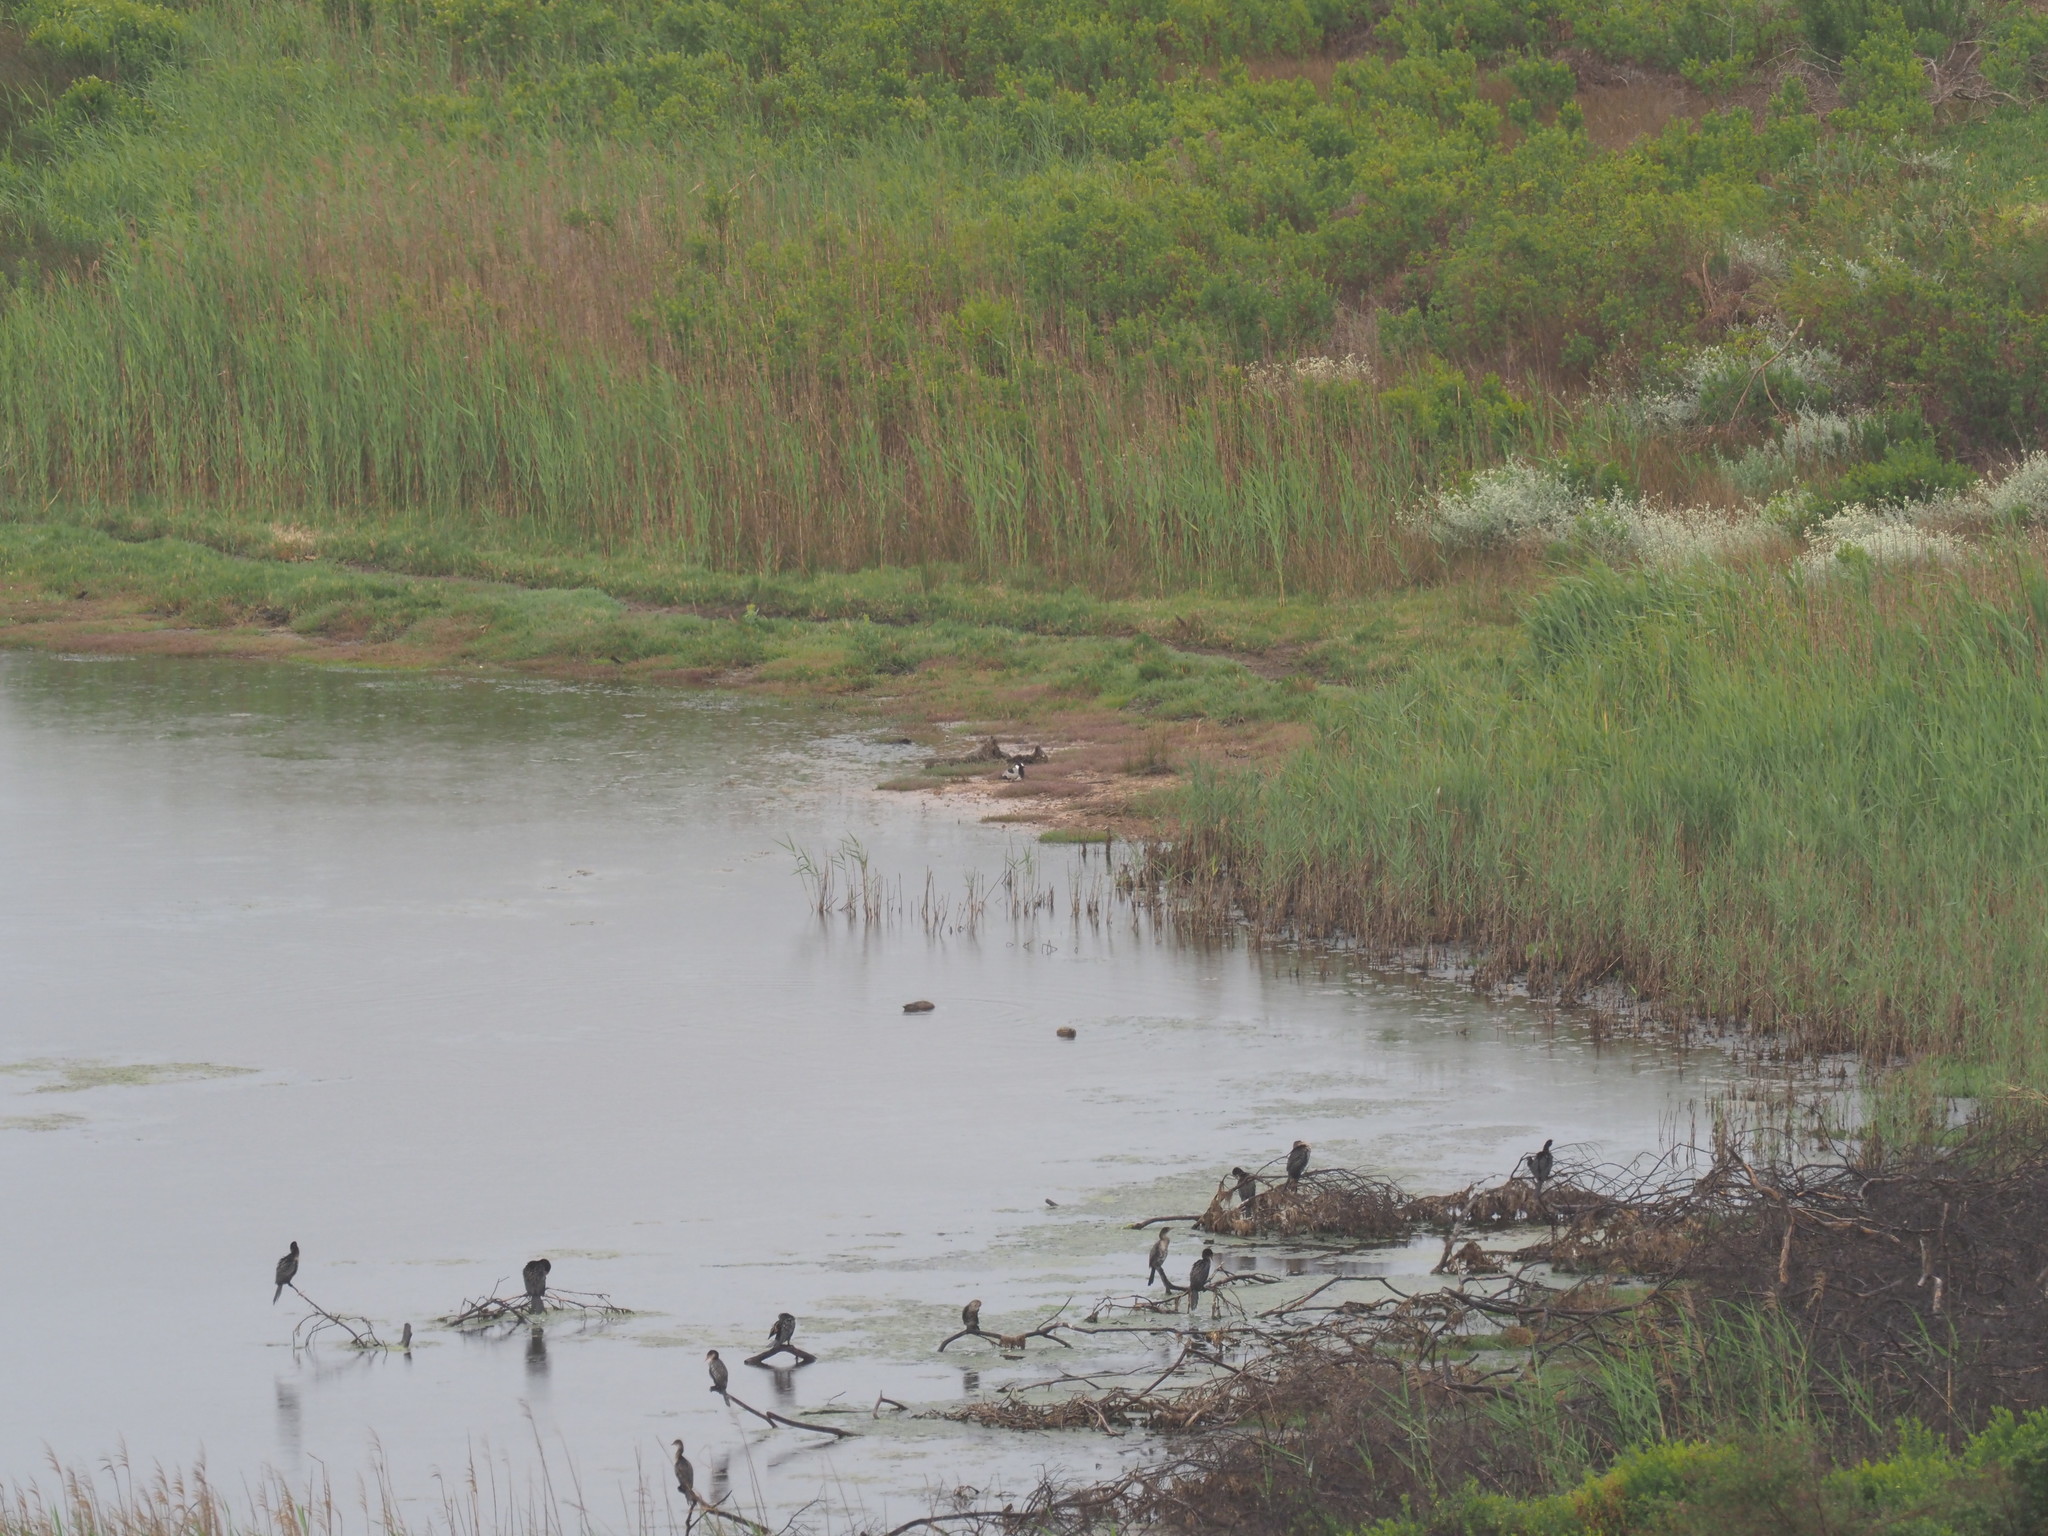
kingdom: Animalia
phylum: Chordata
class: Aves
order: Charadriiformes
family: Charadriidae
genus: Vanellus
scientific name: Vanellus armatus
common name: Blacksmith lapwing
